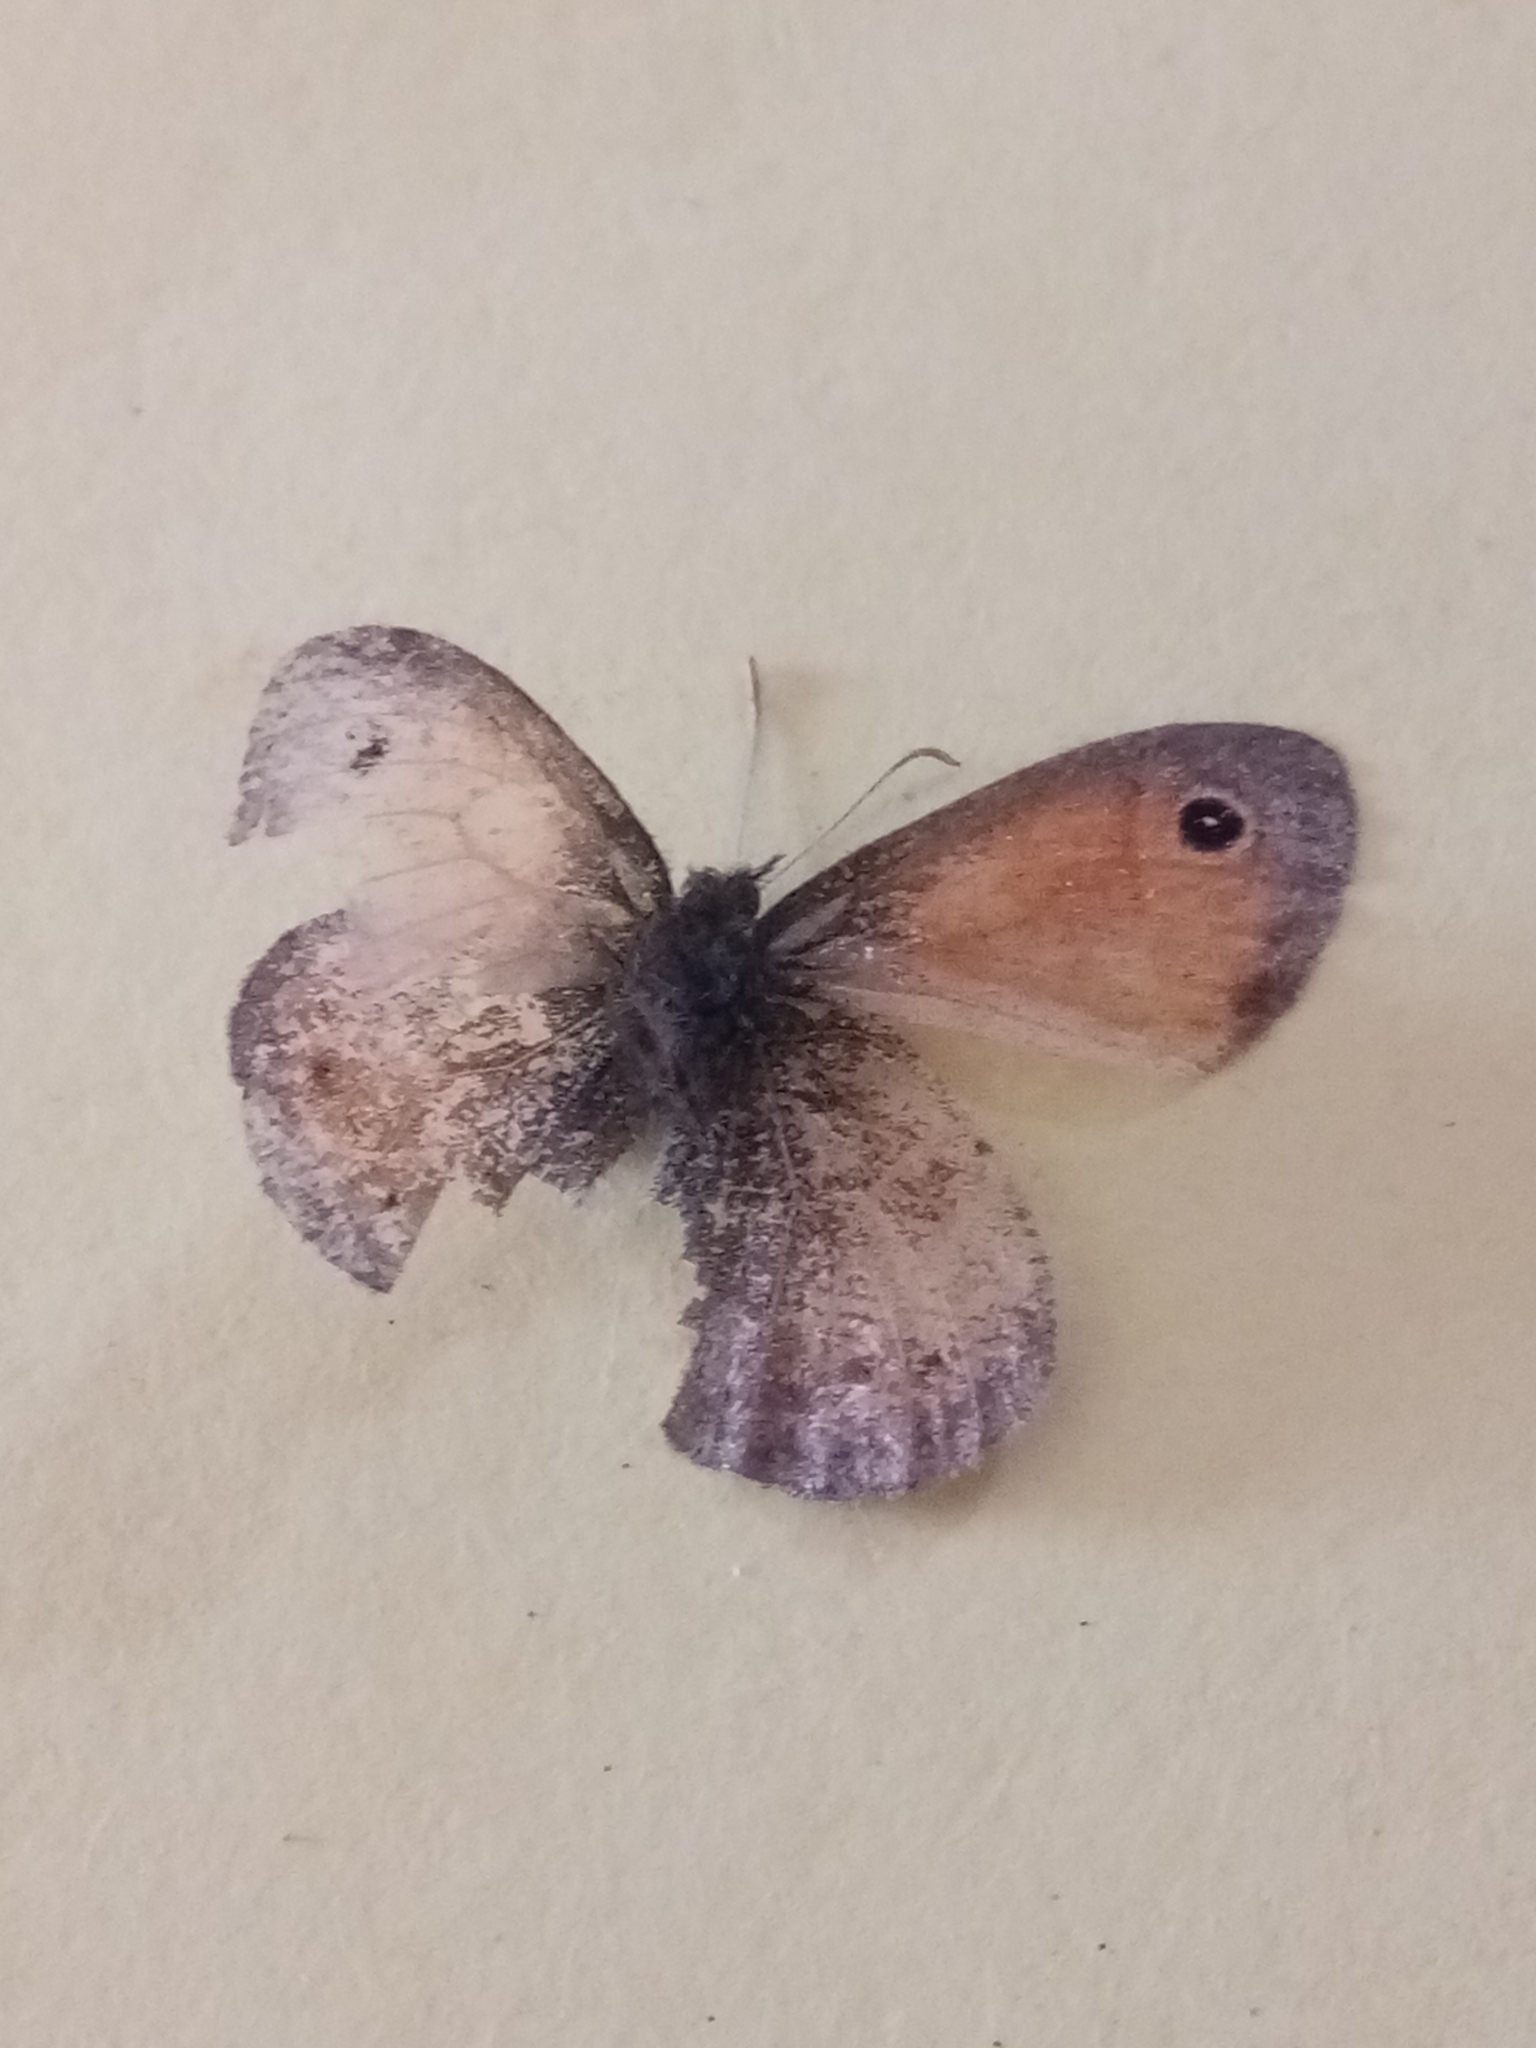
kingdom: Animalia
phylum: Arthropoda
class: Insecta
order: Lepidoptera
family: Nymphalidae
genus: Coenonympha
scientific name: Coenonympha pamphilus
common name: Small heath
